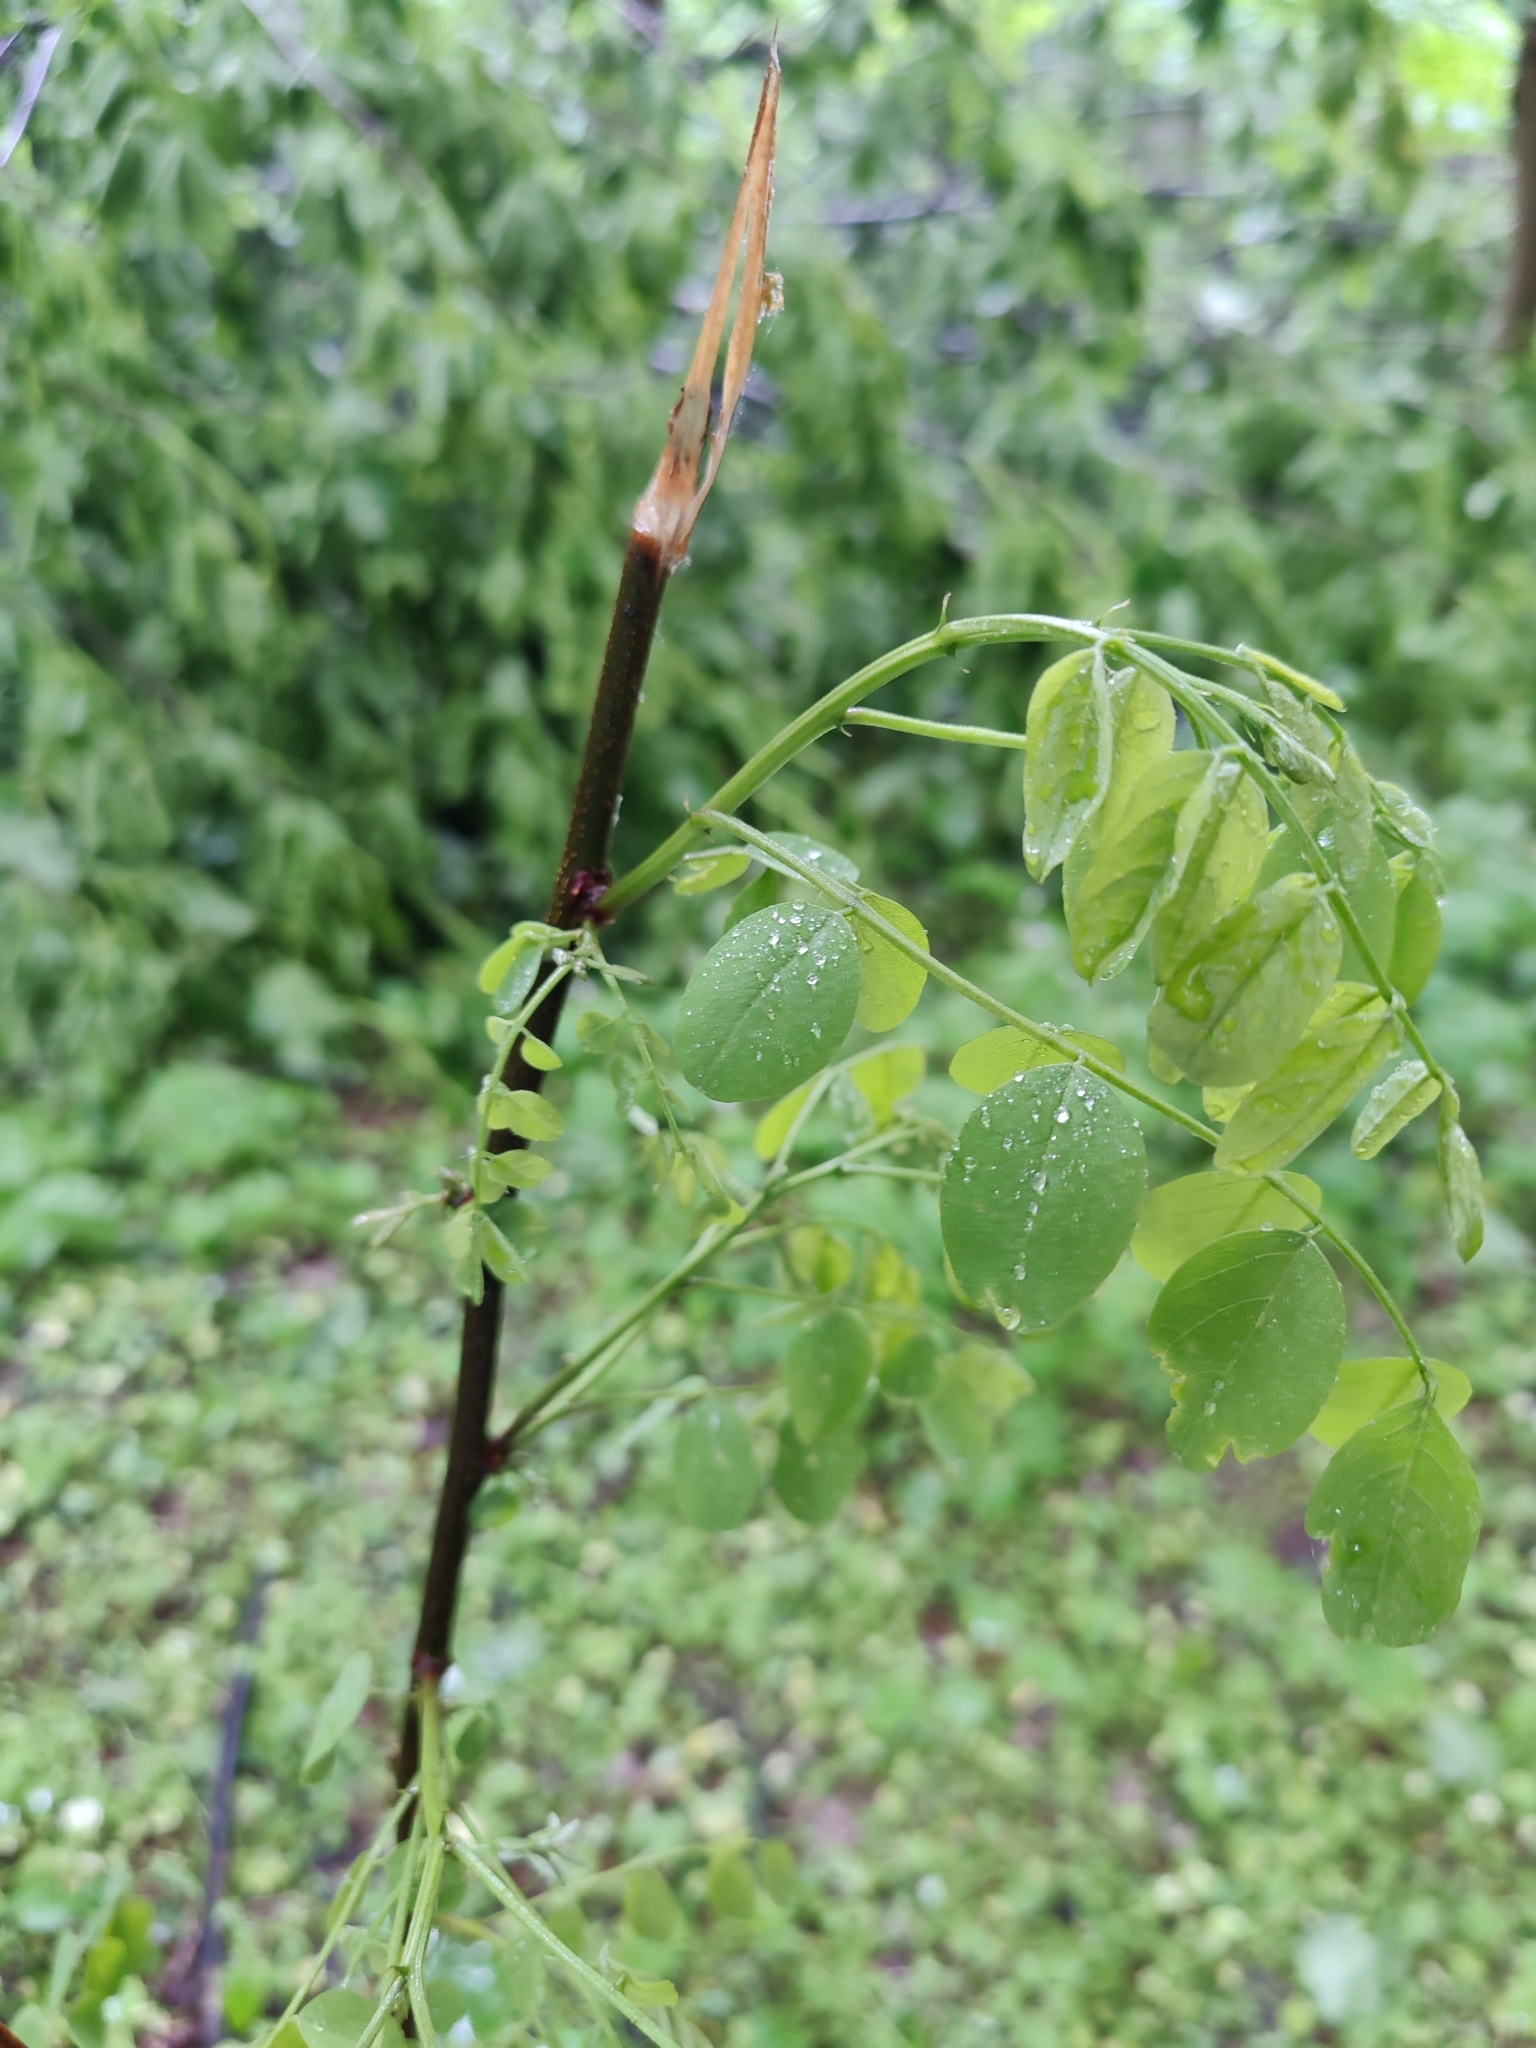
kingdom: Plantae
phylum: Tracheophyta
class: Magnoliopsida
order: Fabales
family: Fabaceae
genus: Robinia
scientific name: Robinia pseudoacacia
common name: Black locust
